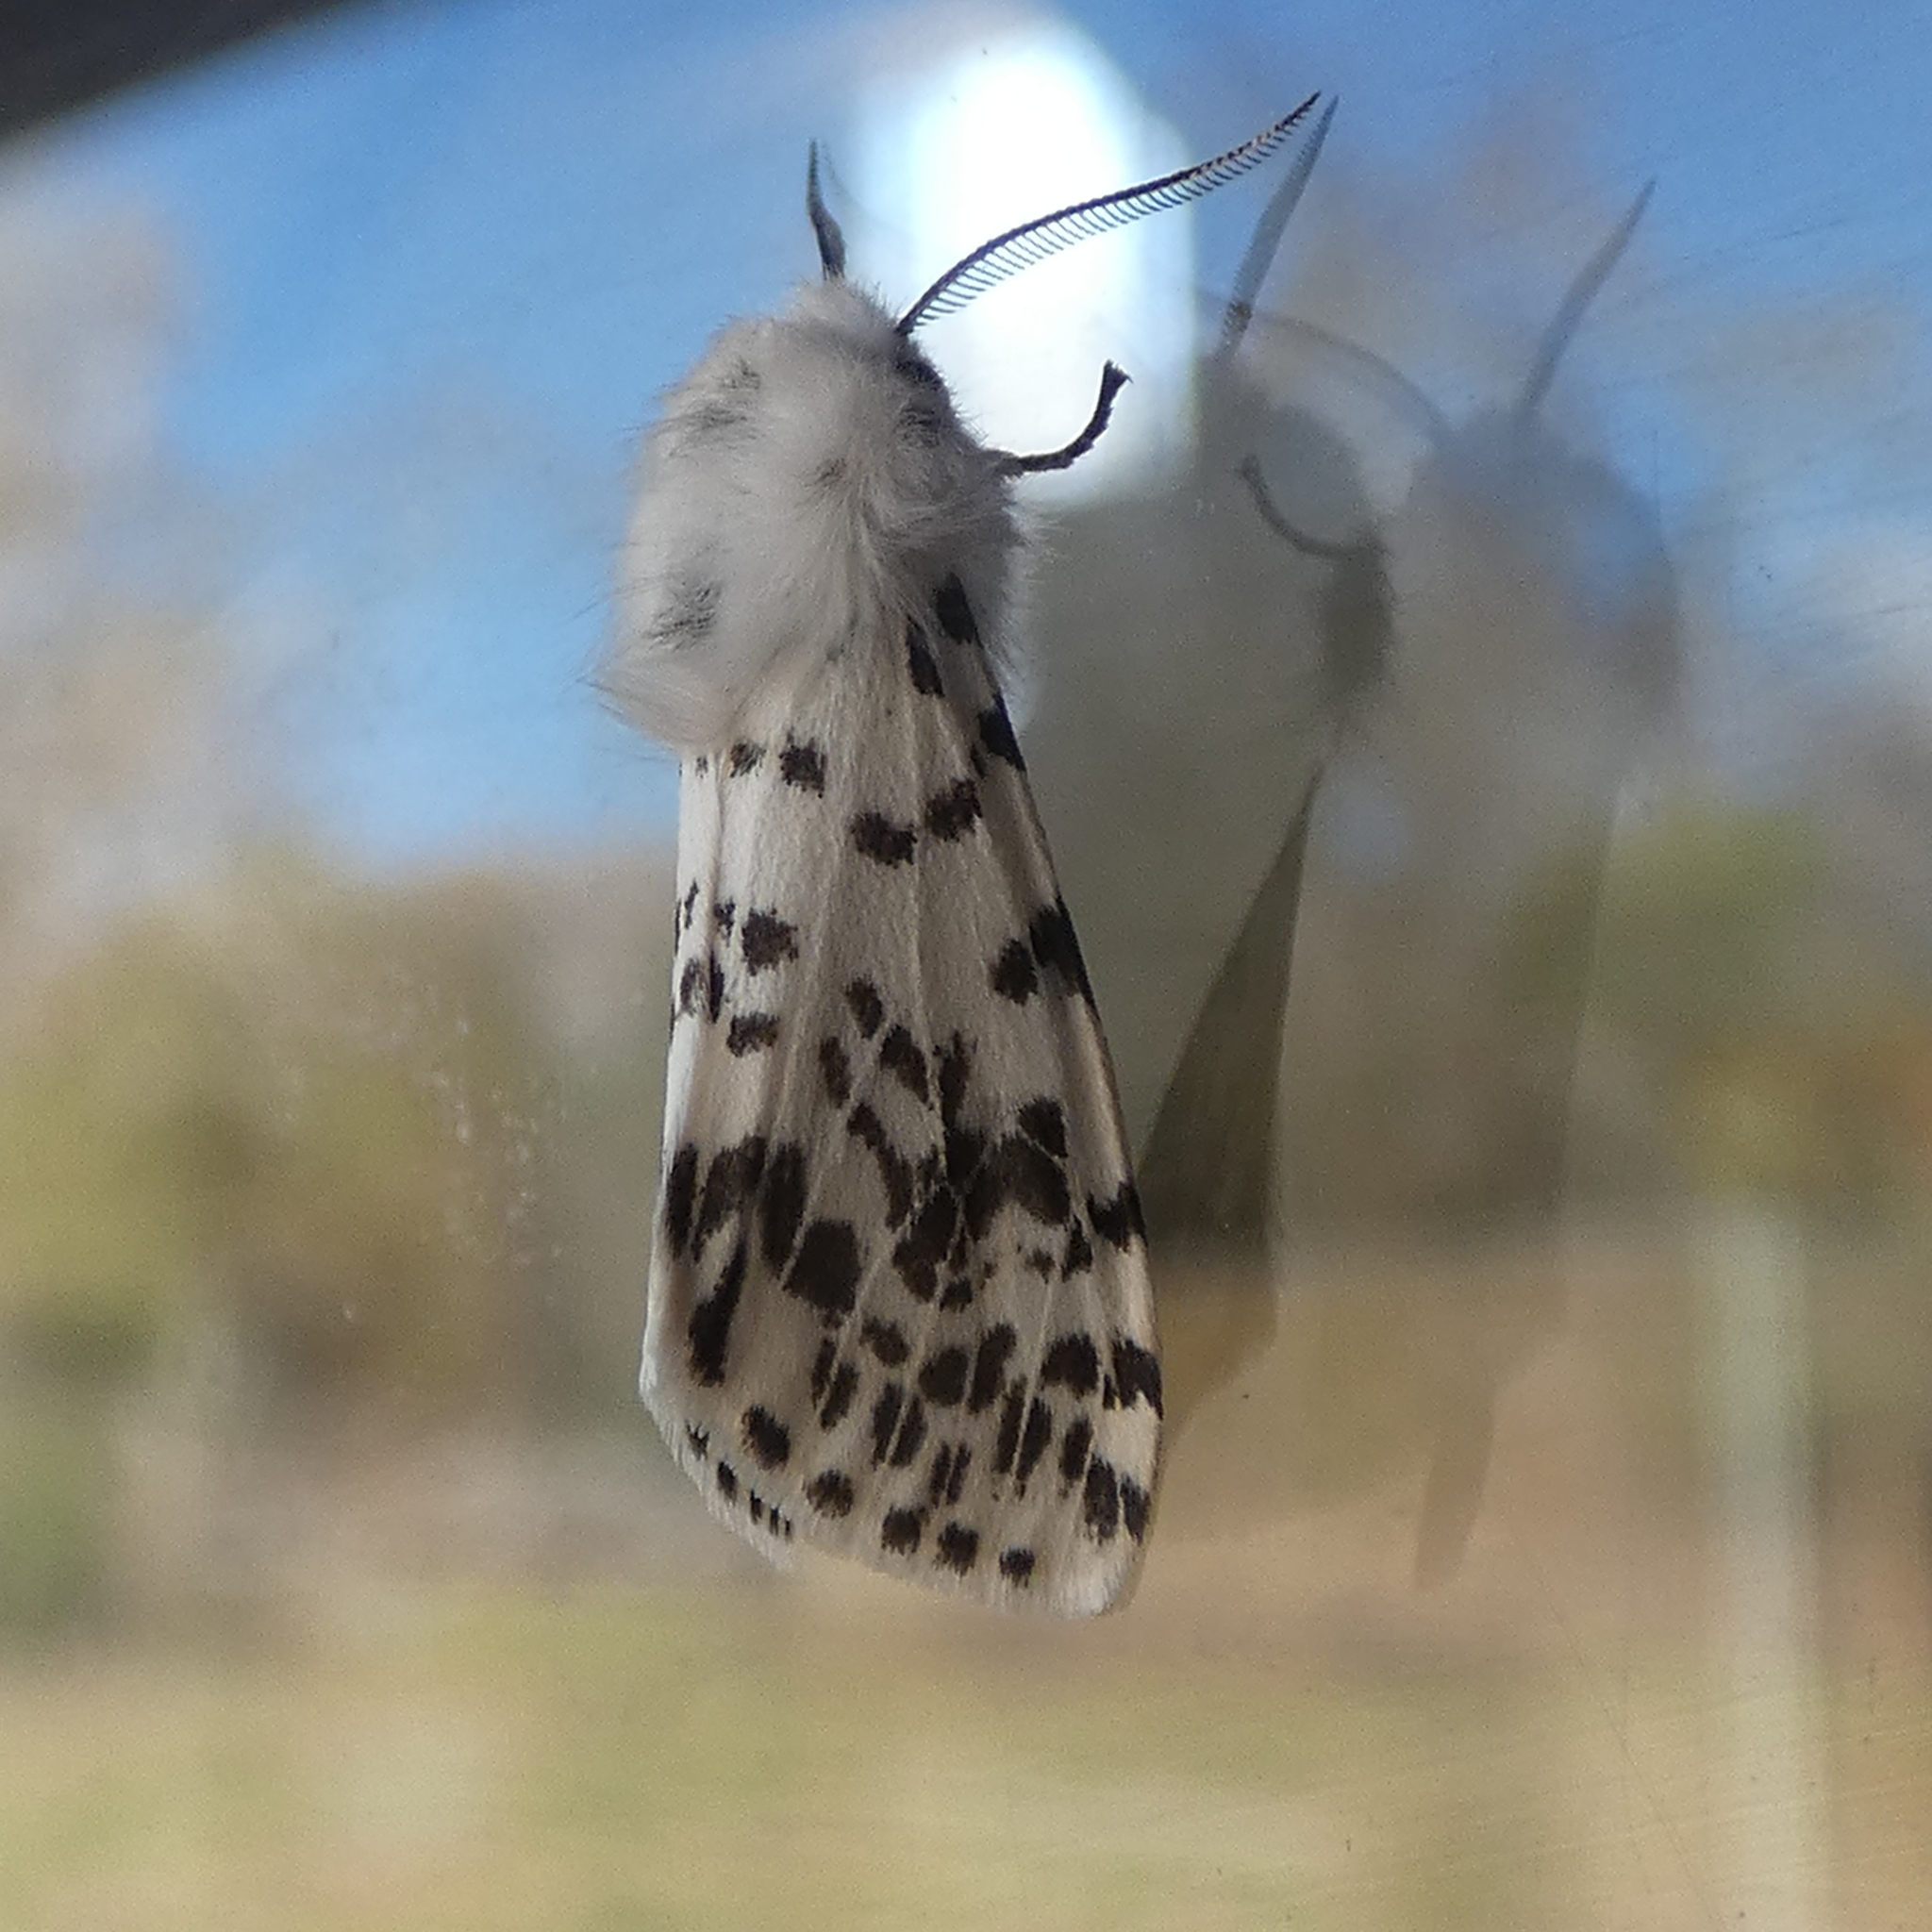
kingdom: Animalia
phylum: Arthropoda
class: Insecta
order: Lepidoptera
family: Erebidae
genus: Hyphantria
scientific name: Hyphantria cunea
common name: American white moth
